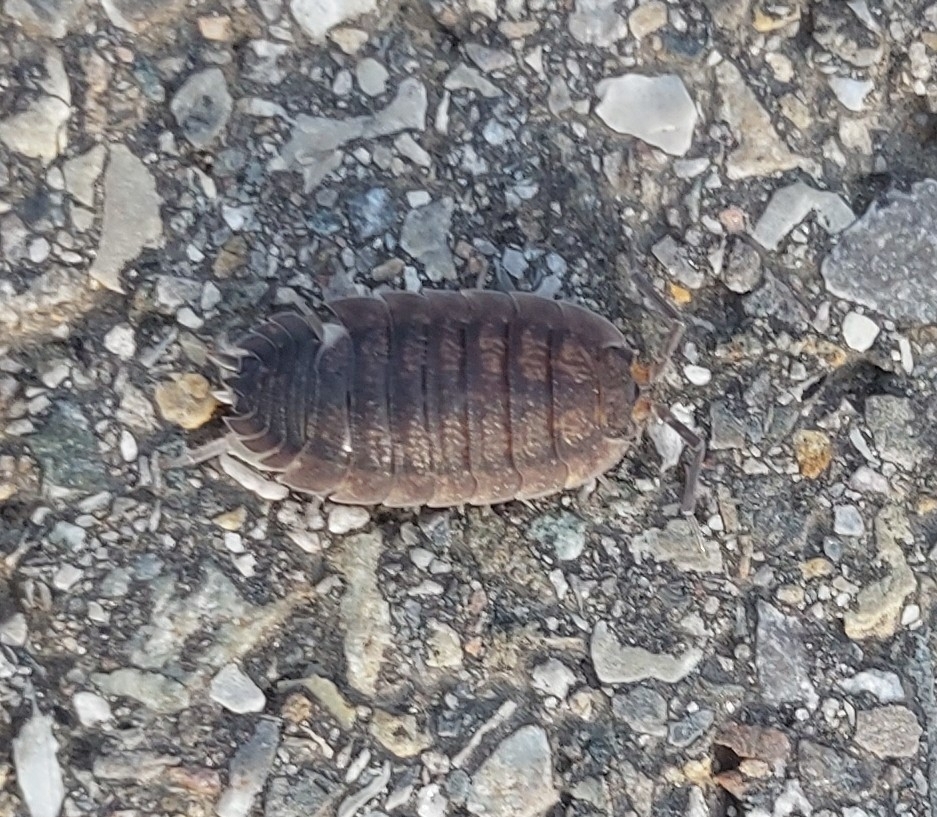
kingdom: Animalia
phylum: Arthropoda
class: Malacostraca
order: Isopoda
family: Porcellionidae
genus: Porcellio
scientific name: Porcellio scaber
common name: Common rough woodlouse
